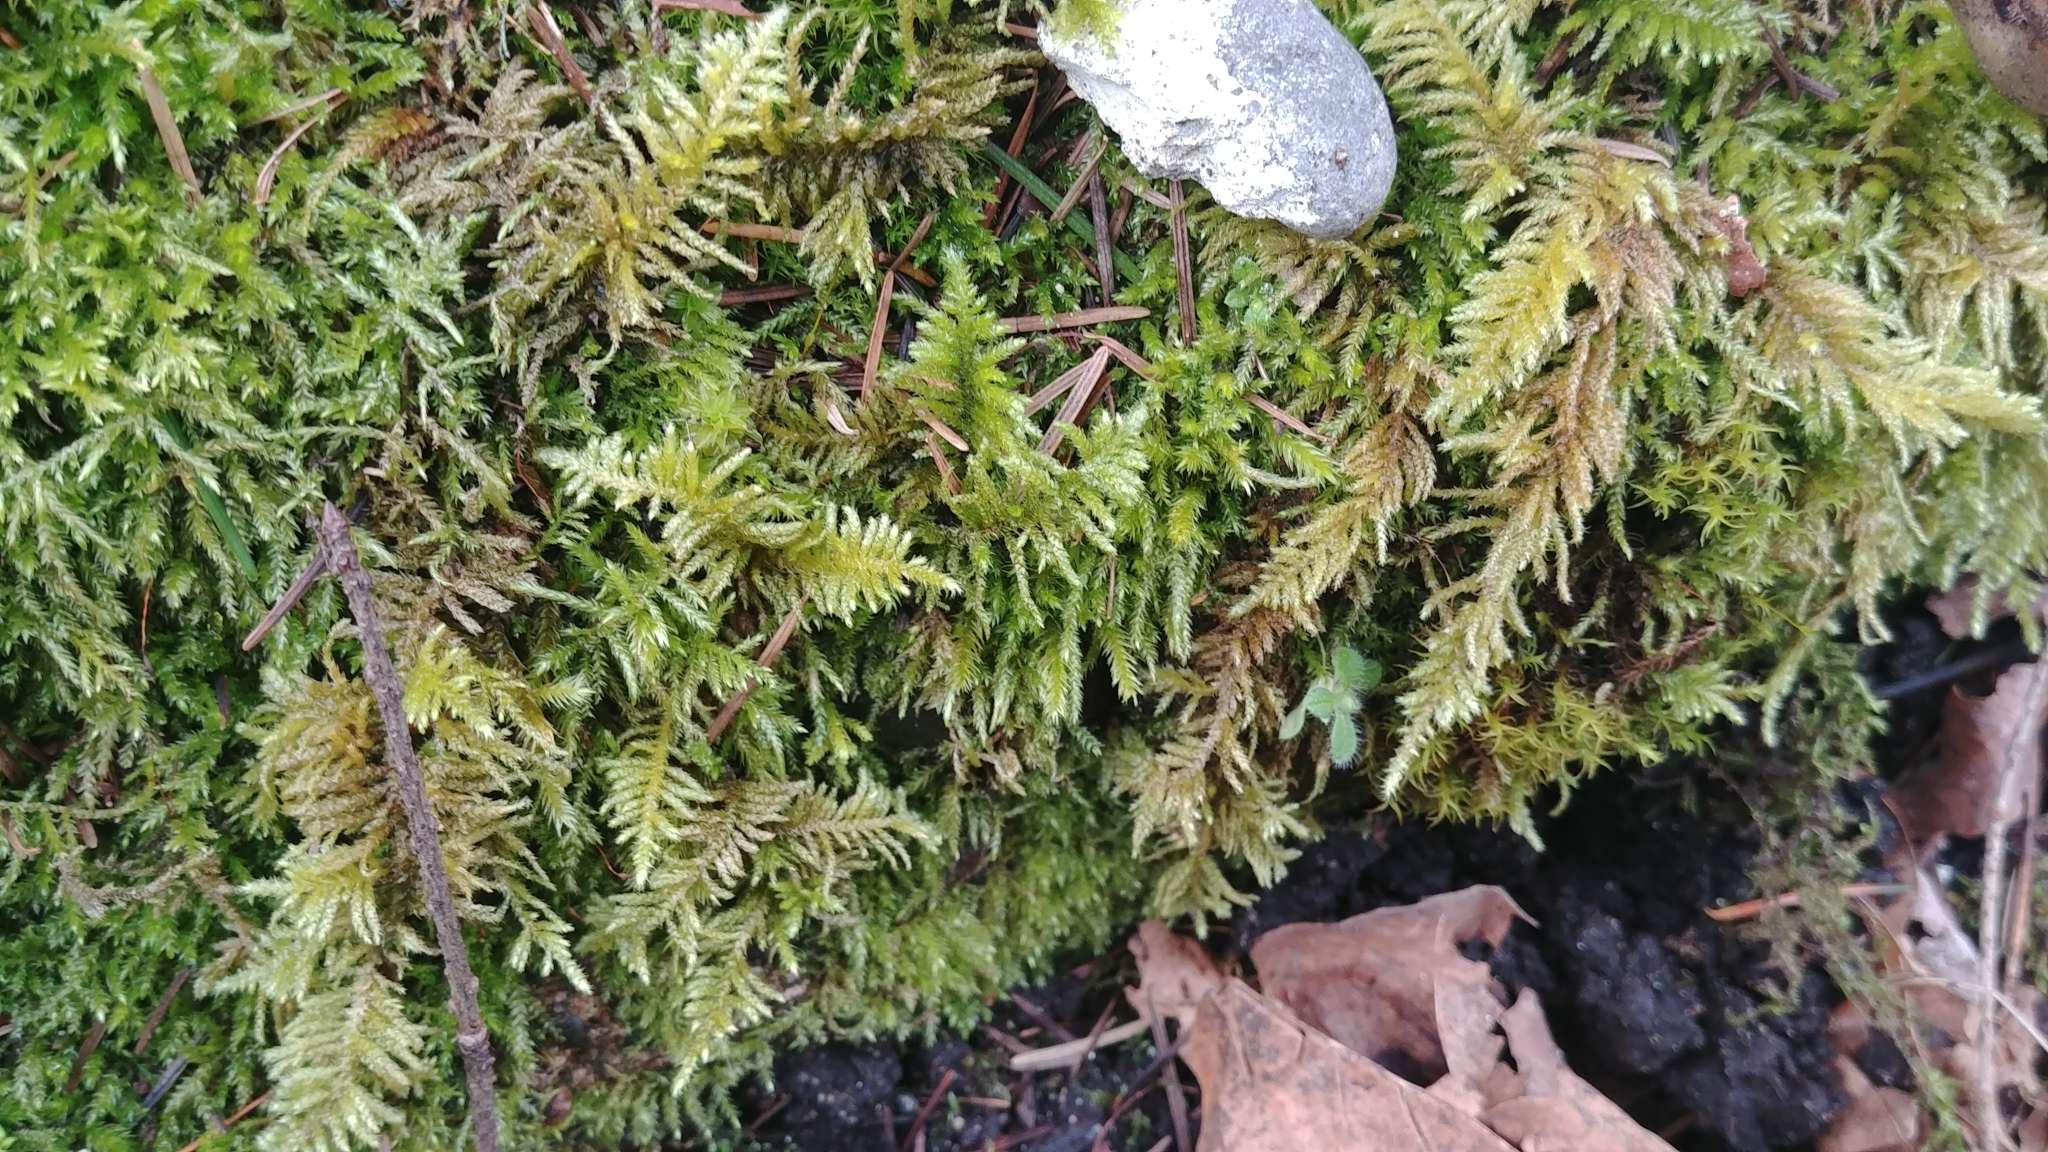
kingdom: Plantae
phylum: Bryophyta
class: Bryopsida
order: Hypnales
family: Brachytheciaceae
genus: Kindbergia
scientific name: Kindbergia oregana
